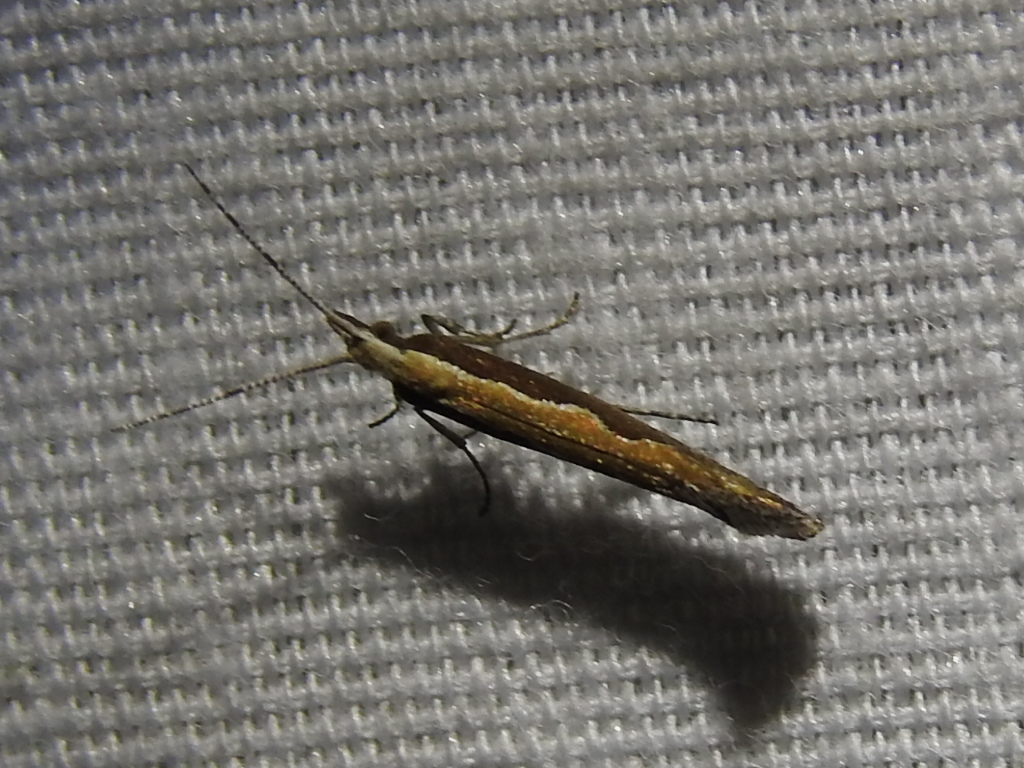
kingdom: Animalia
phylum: Arthropoda
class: Insecta
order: Lepidoptera
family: Plutellidae
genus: Plutella
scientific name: Plutella xylostella
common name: Diamond-back moth
